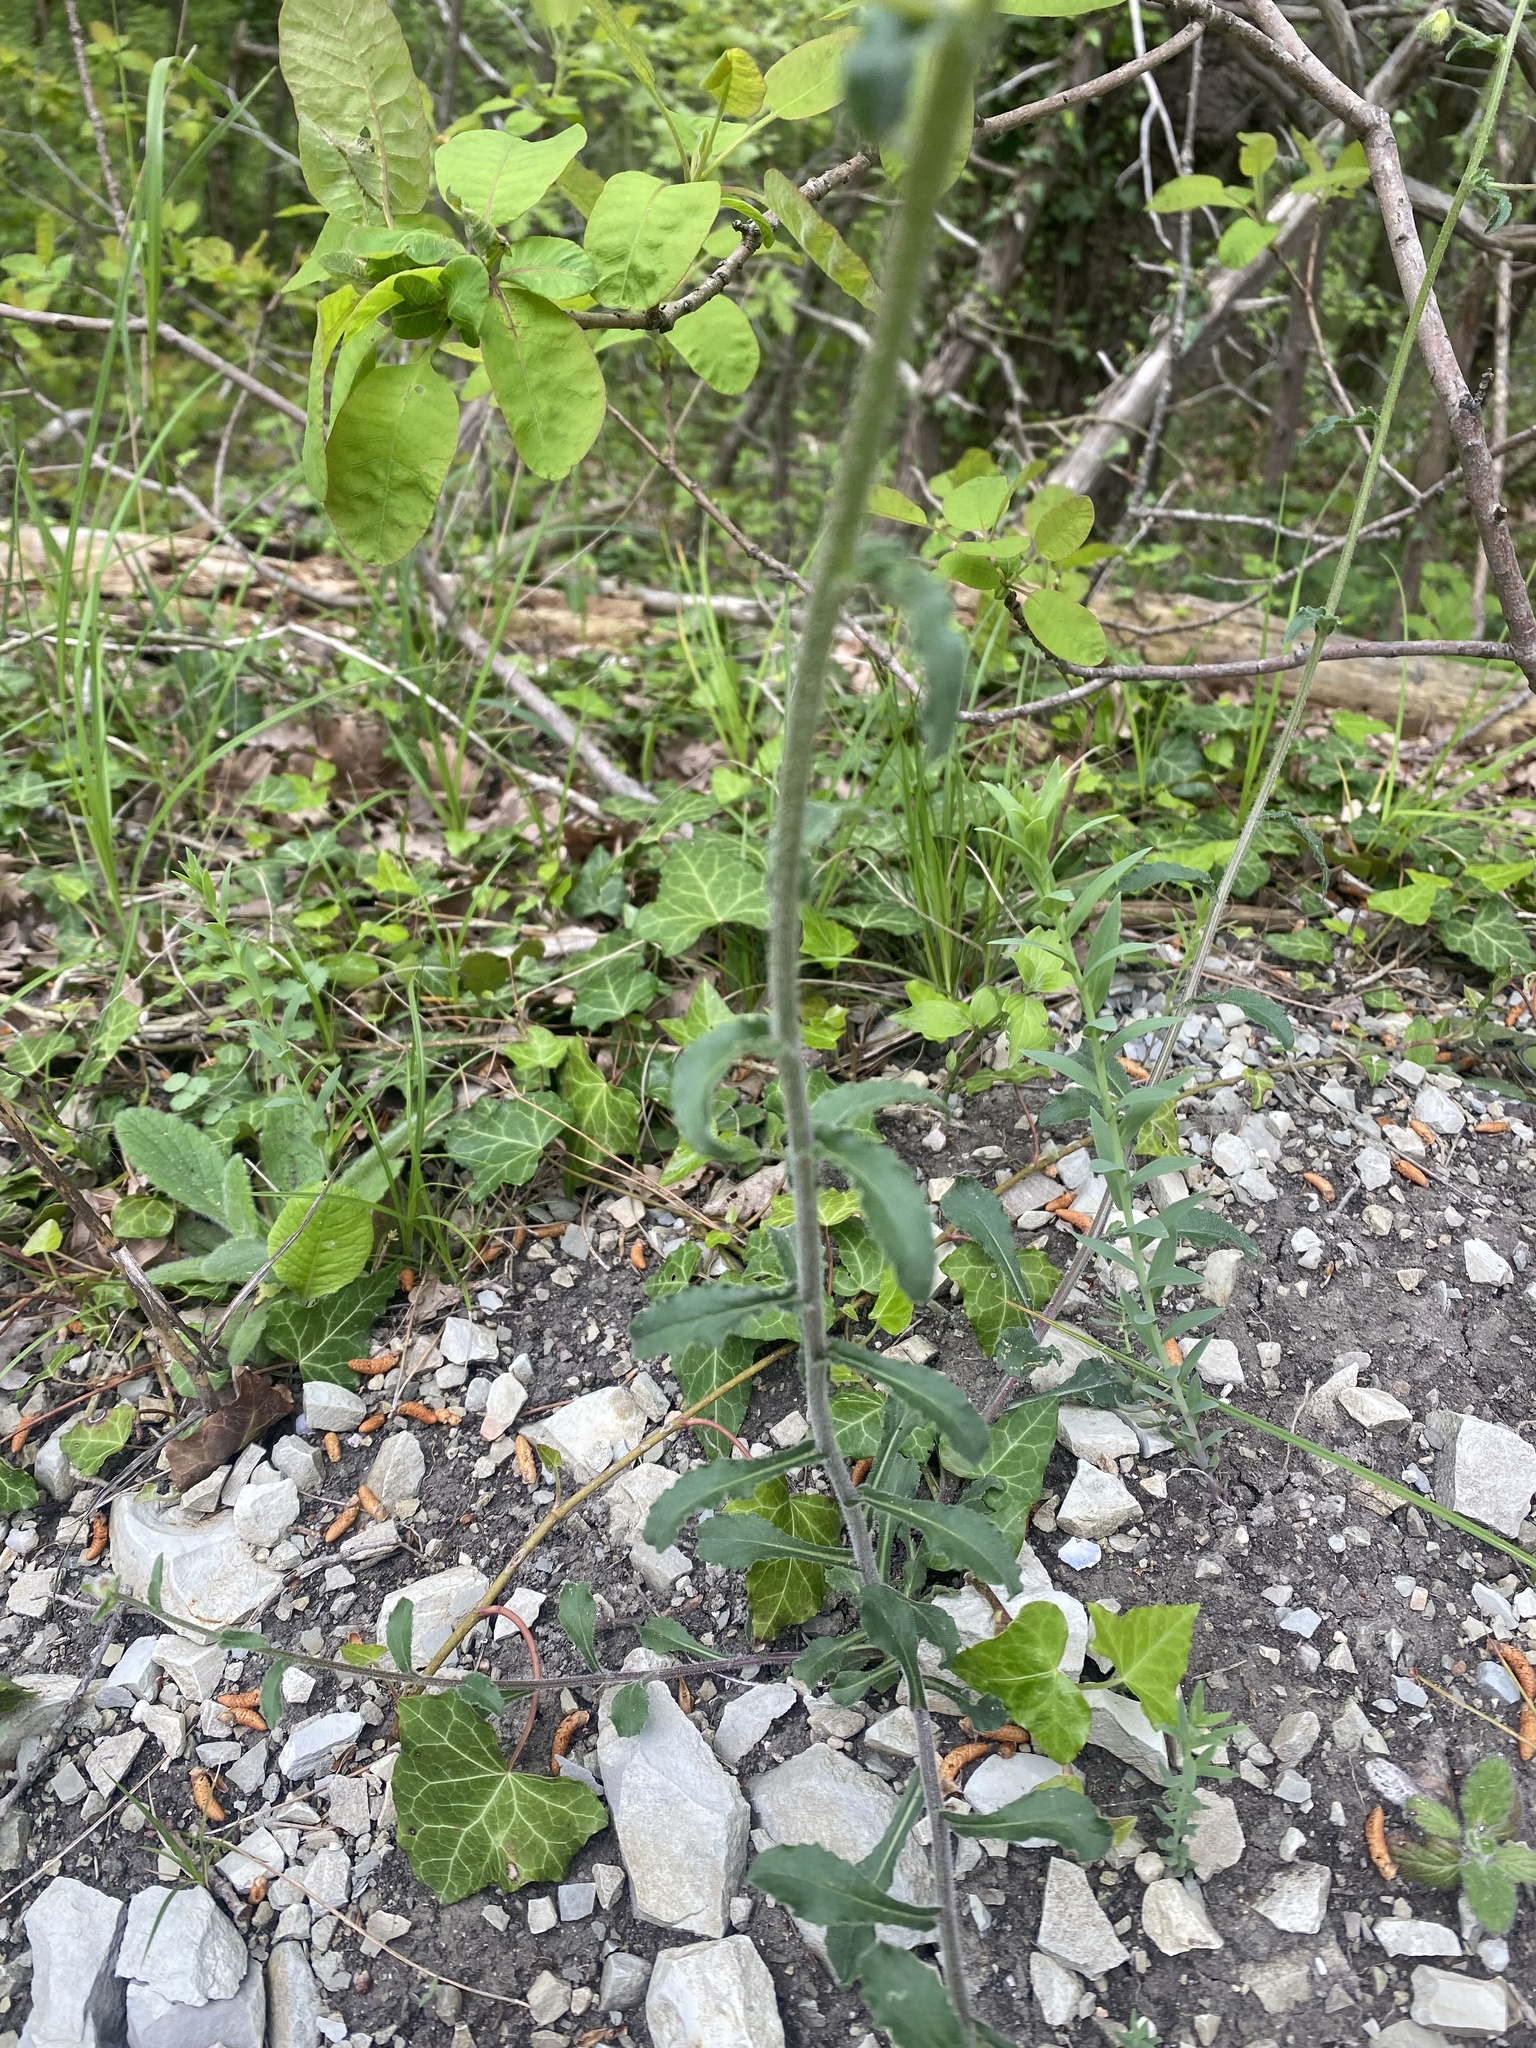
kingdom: Plantae
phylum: Tracheophyta
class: Magnoliopsida
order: Asterales
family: Campanulaceae
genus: Campanula
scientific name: Campanula komarovii
